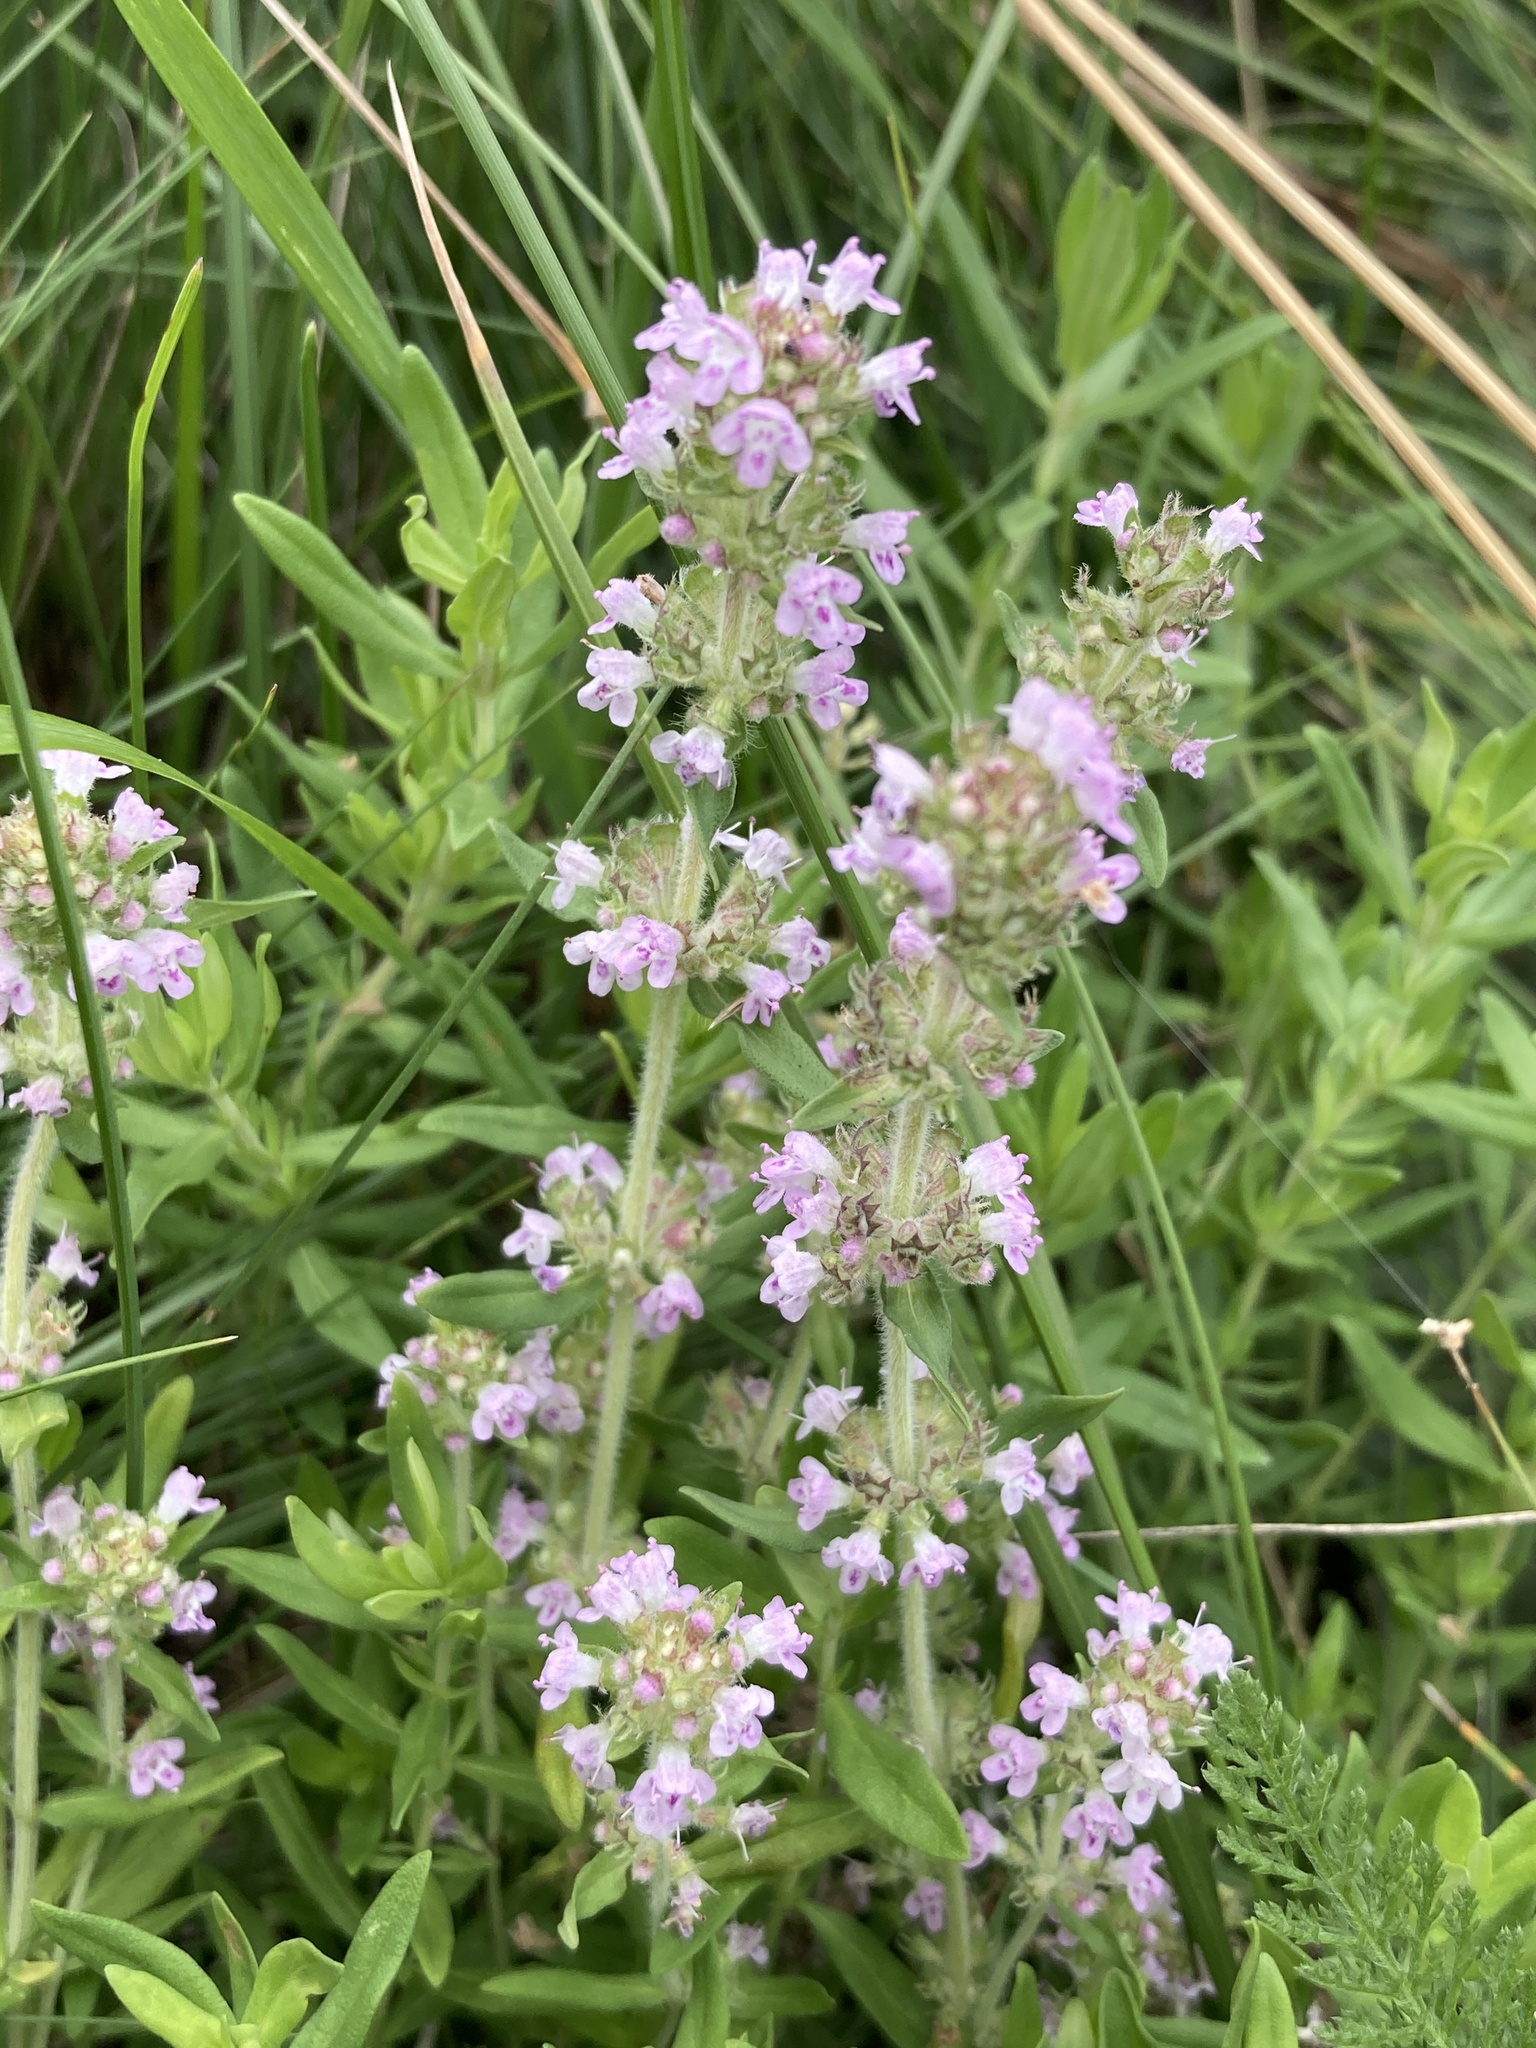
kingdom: Plantae
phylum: Tracheophyta
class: Magnoliopsida
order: Lamiales
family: Lamiaceae
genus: Thymus
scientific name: Thymus pannonicus
